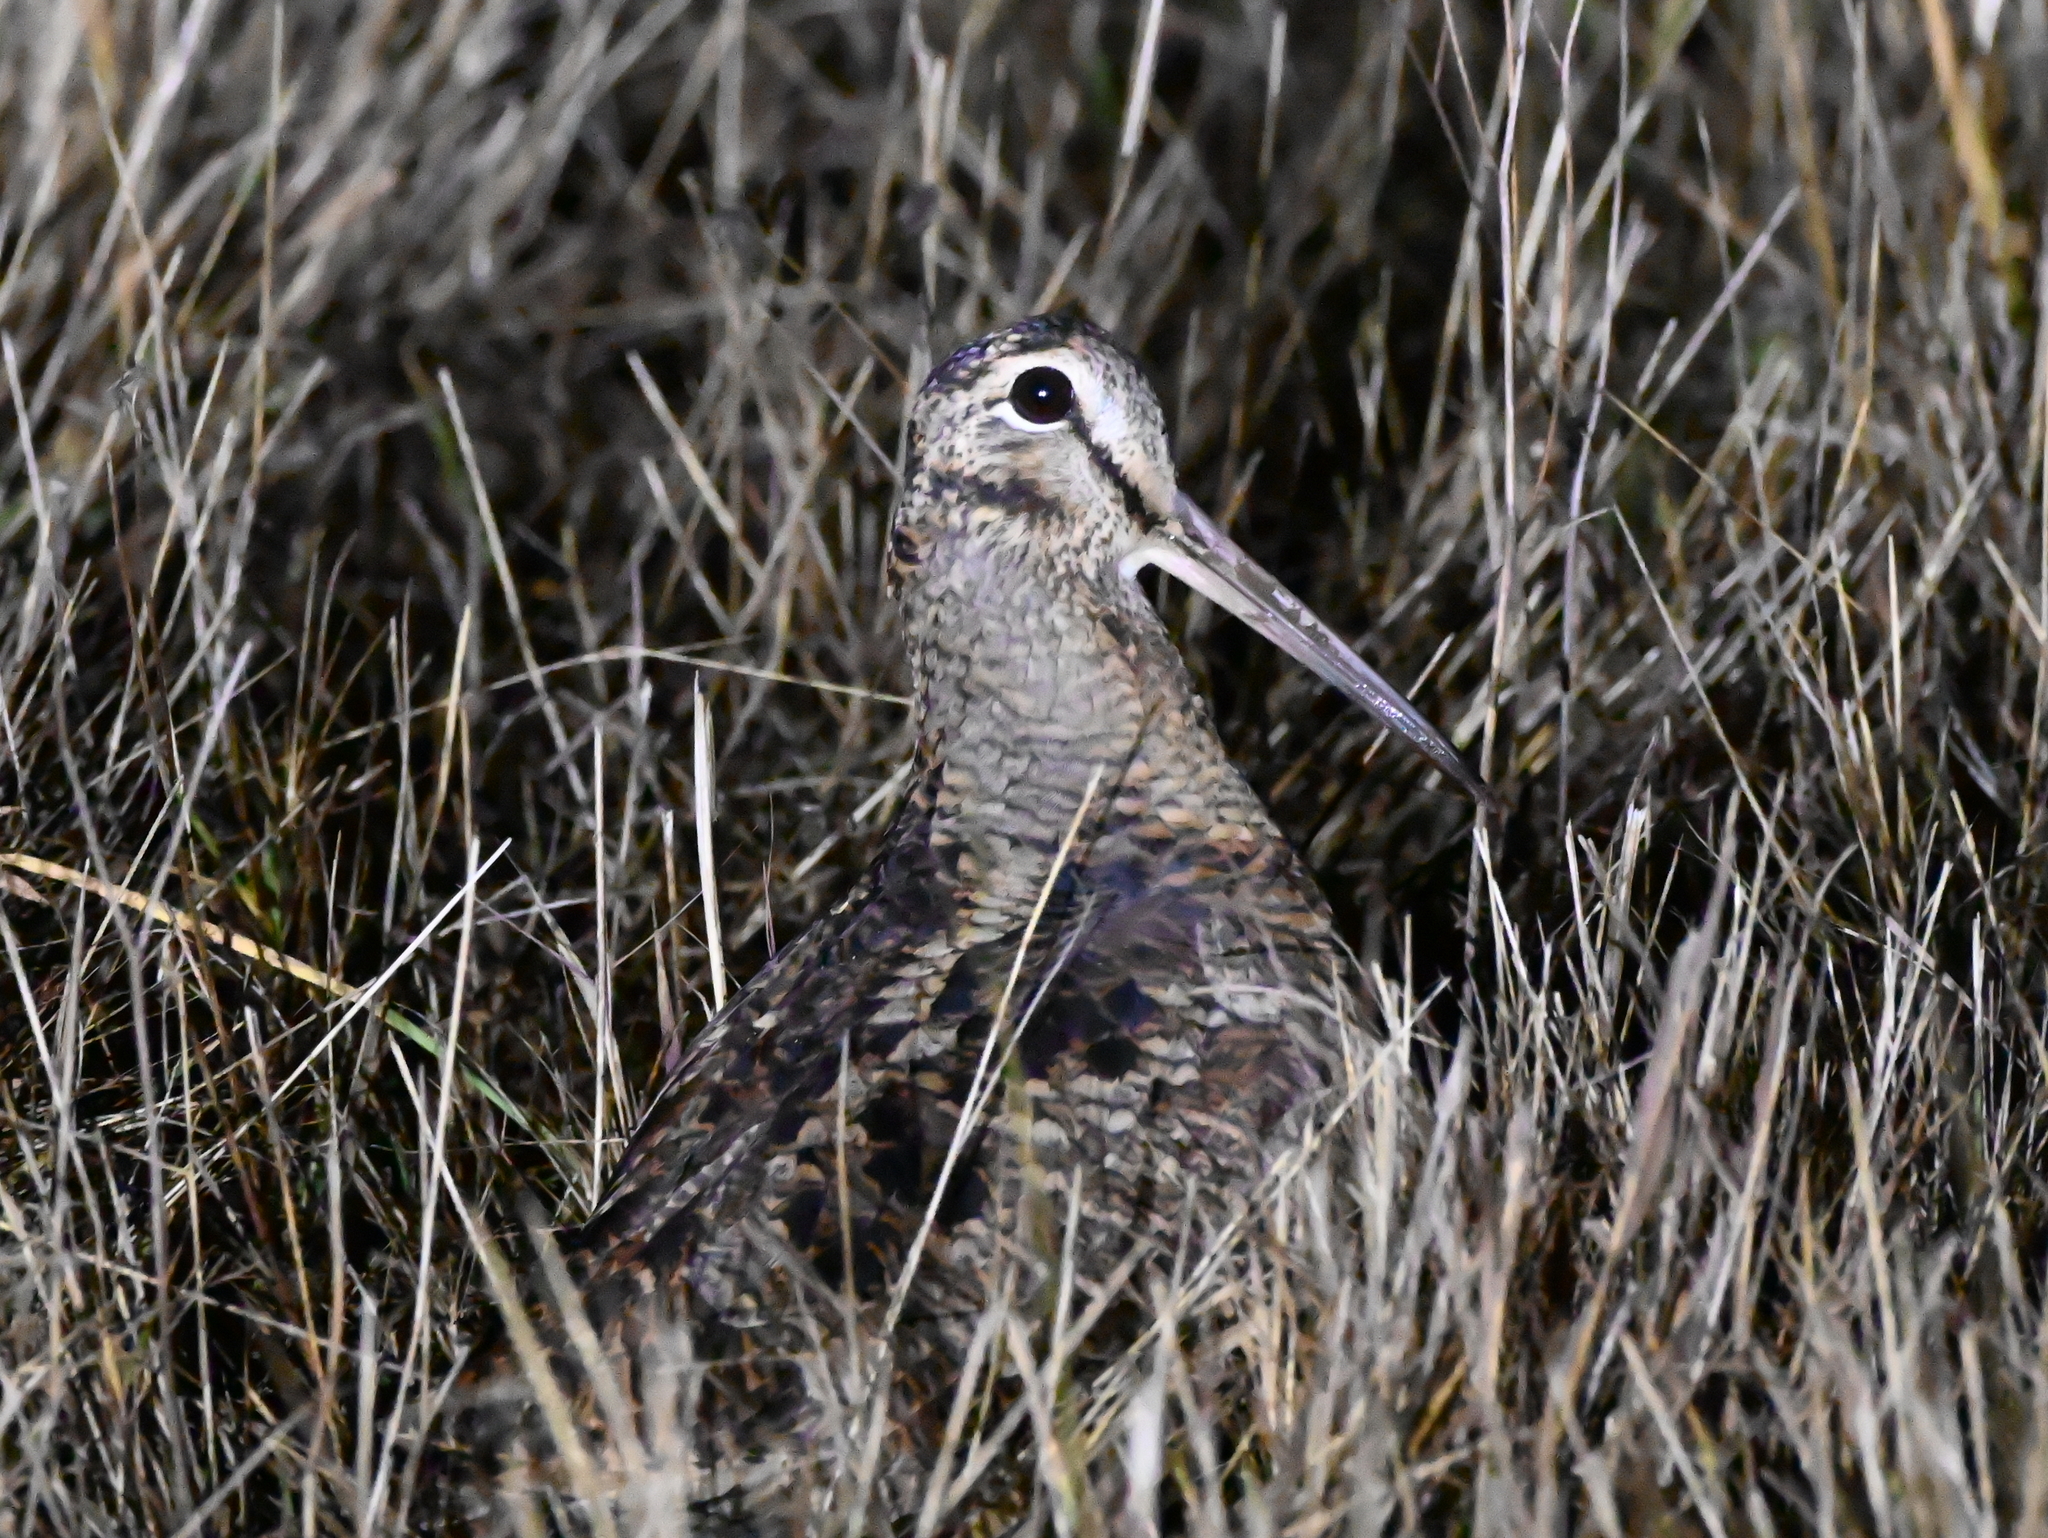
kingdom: Animalia
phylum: Chordata
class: Aves
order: Charadriiformes
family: Scolopacidae
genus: Scolopax
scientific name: Scolopax rusticola
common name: Eurasian woodcock
